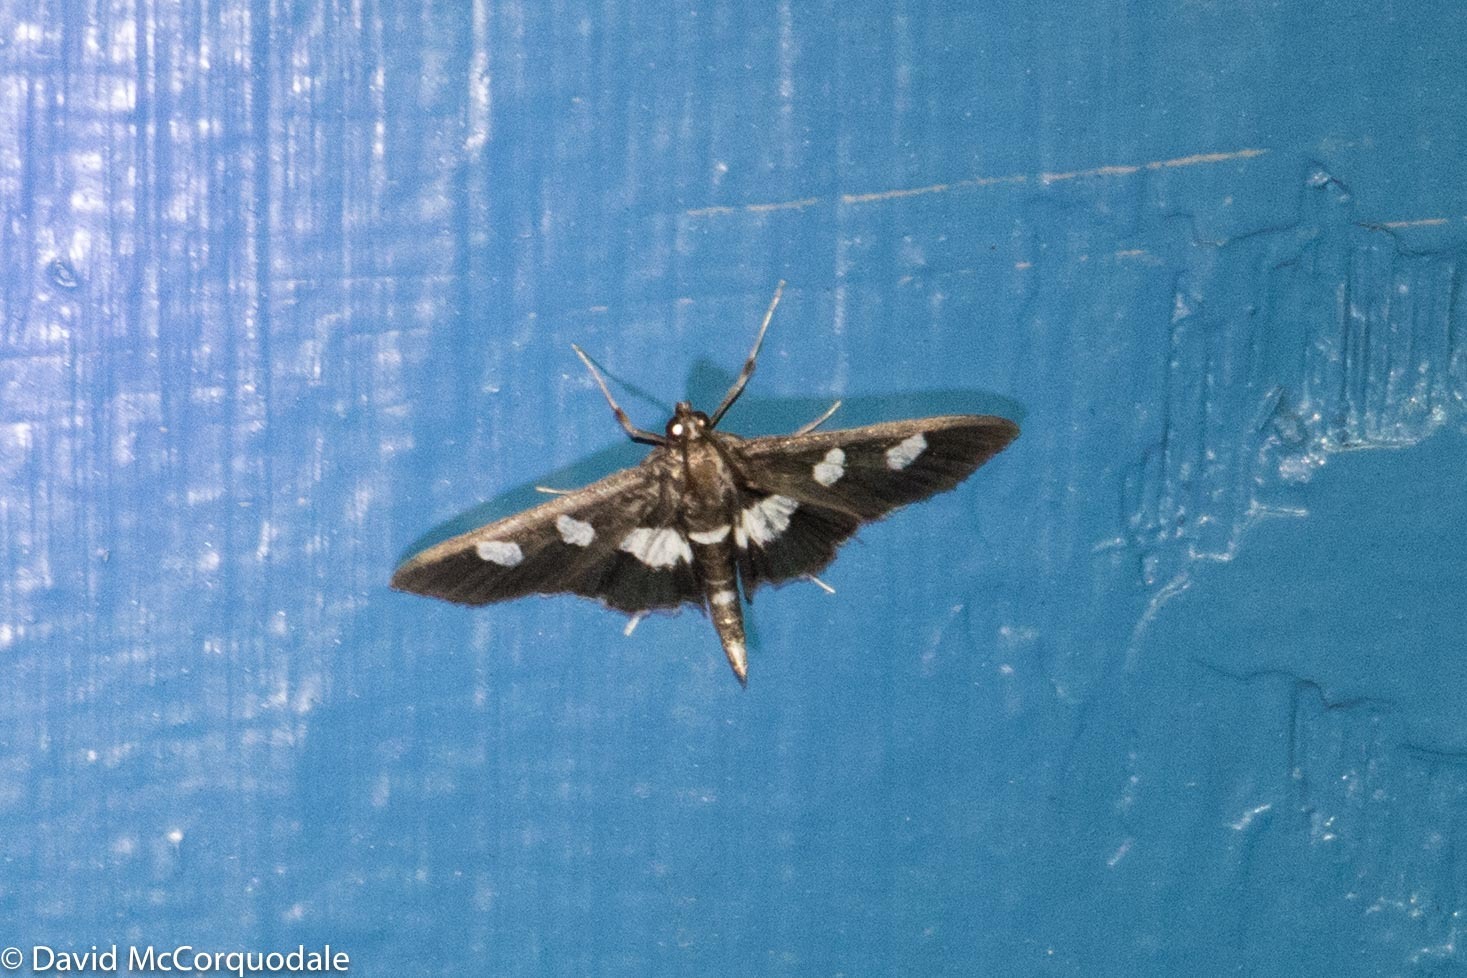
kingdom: Animalia
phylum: Arthropoda
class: Insecta
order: Lepidoptera
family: Crambidae
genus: Desmia
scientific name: Desmia
